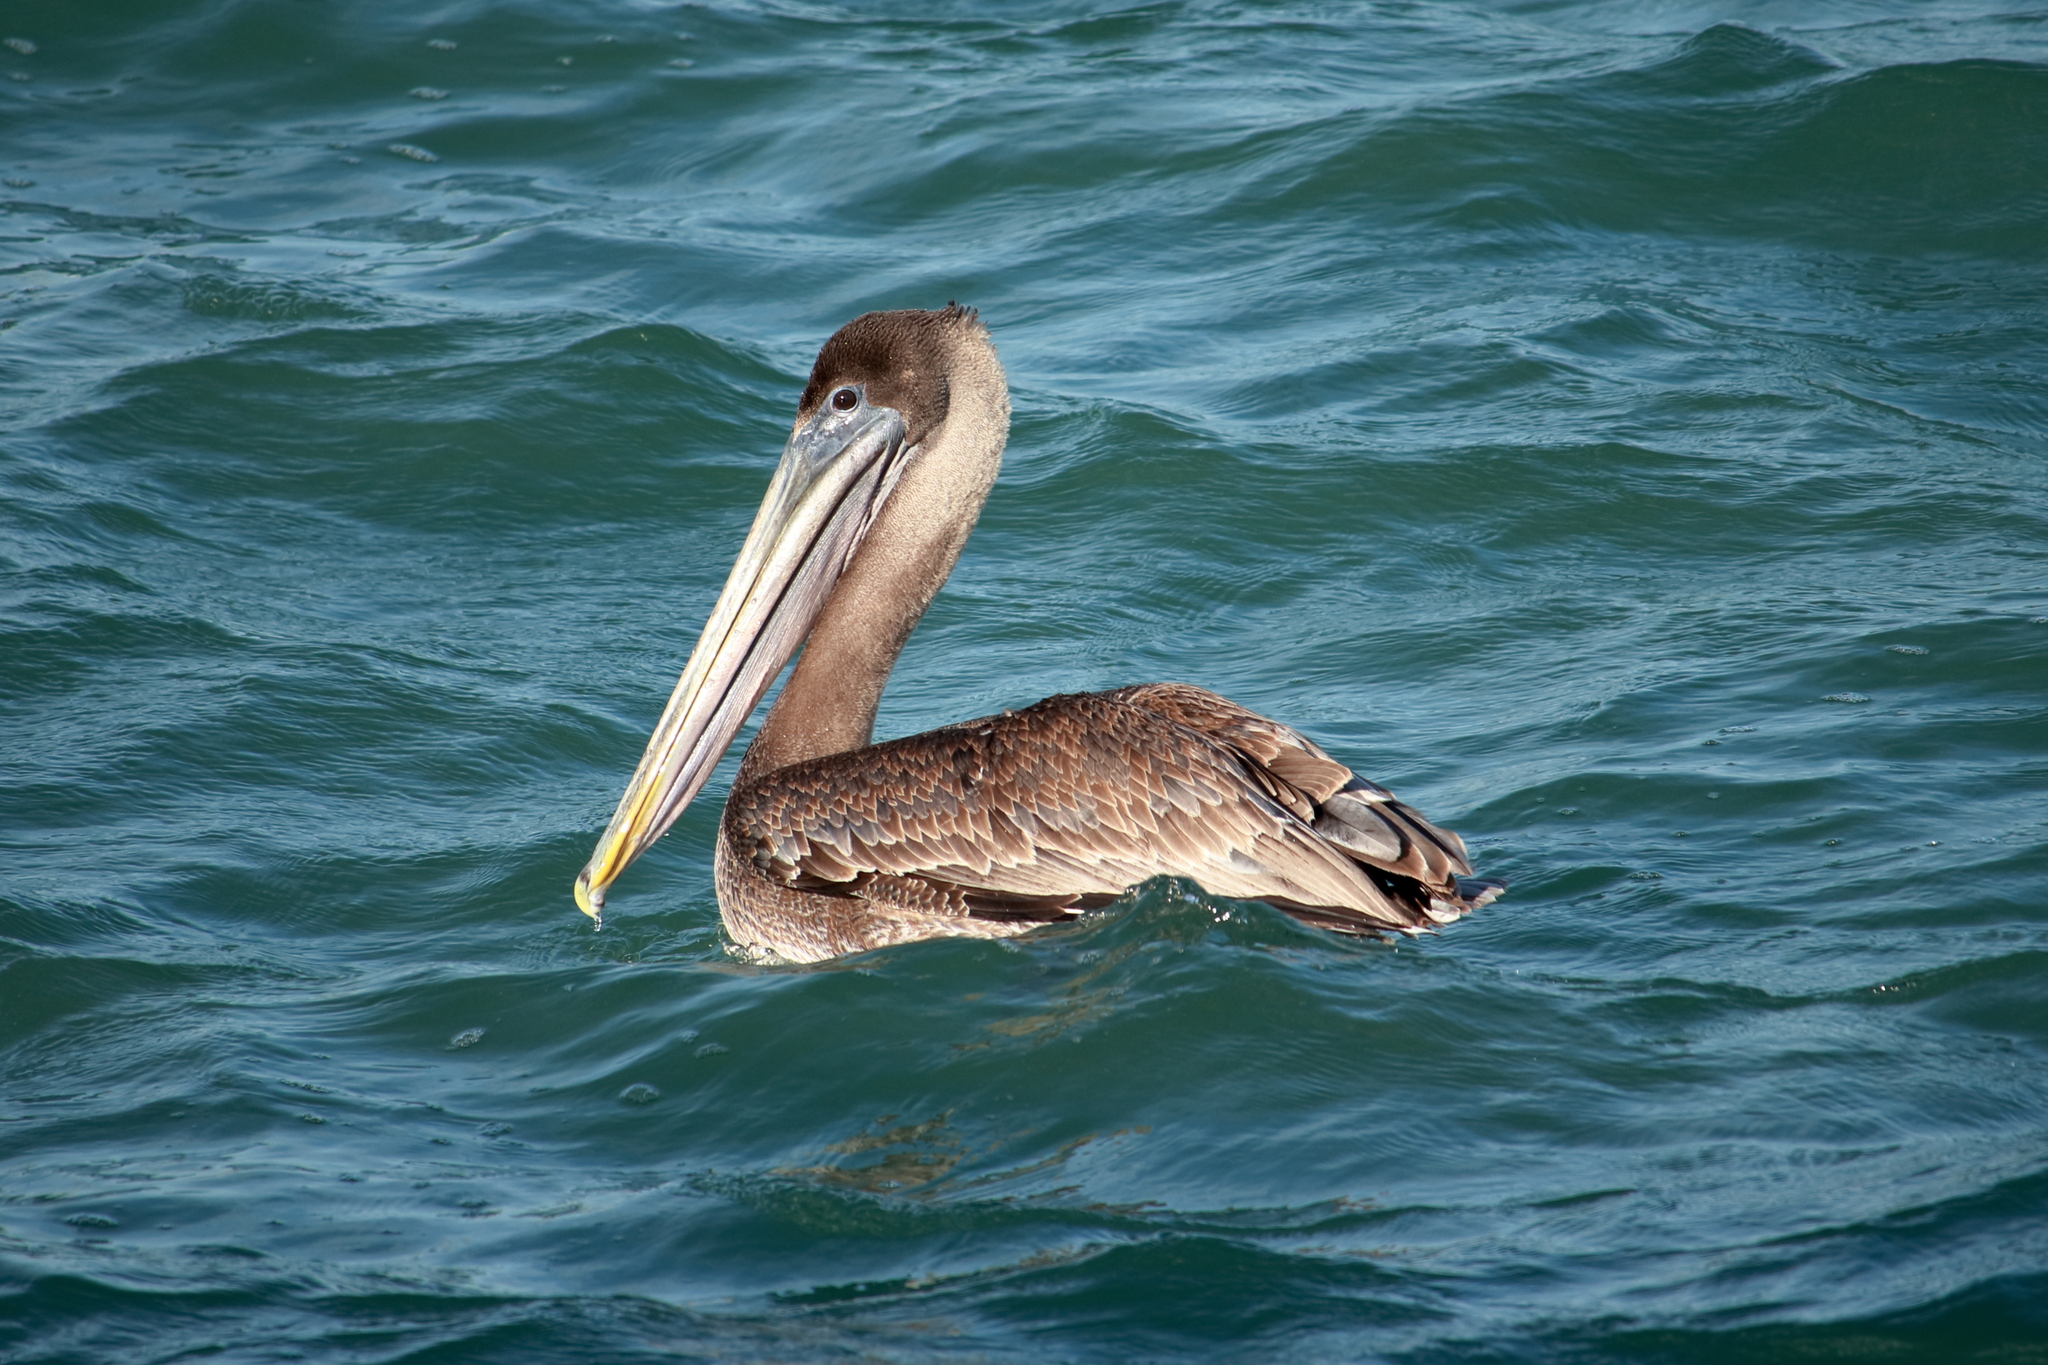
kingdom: Animalia
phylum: Chordata
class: Aves
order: Pelecaniformes
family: Pelecanidae
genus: Pelecanus
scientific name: Pelecanus occidentalis
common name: Brown pelican
